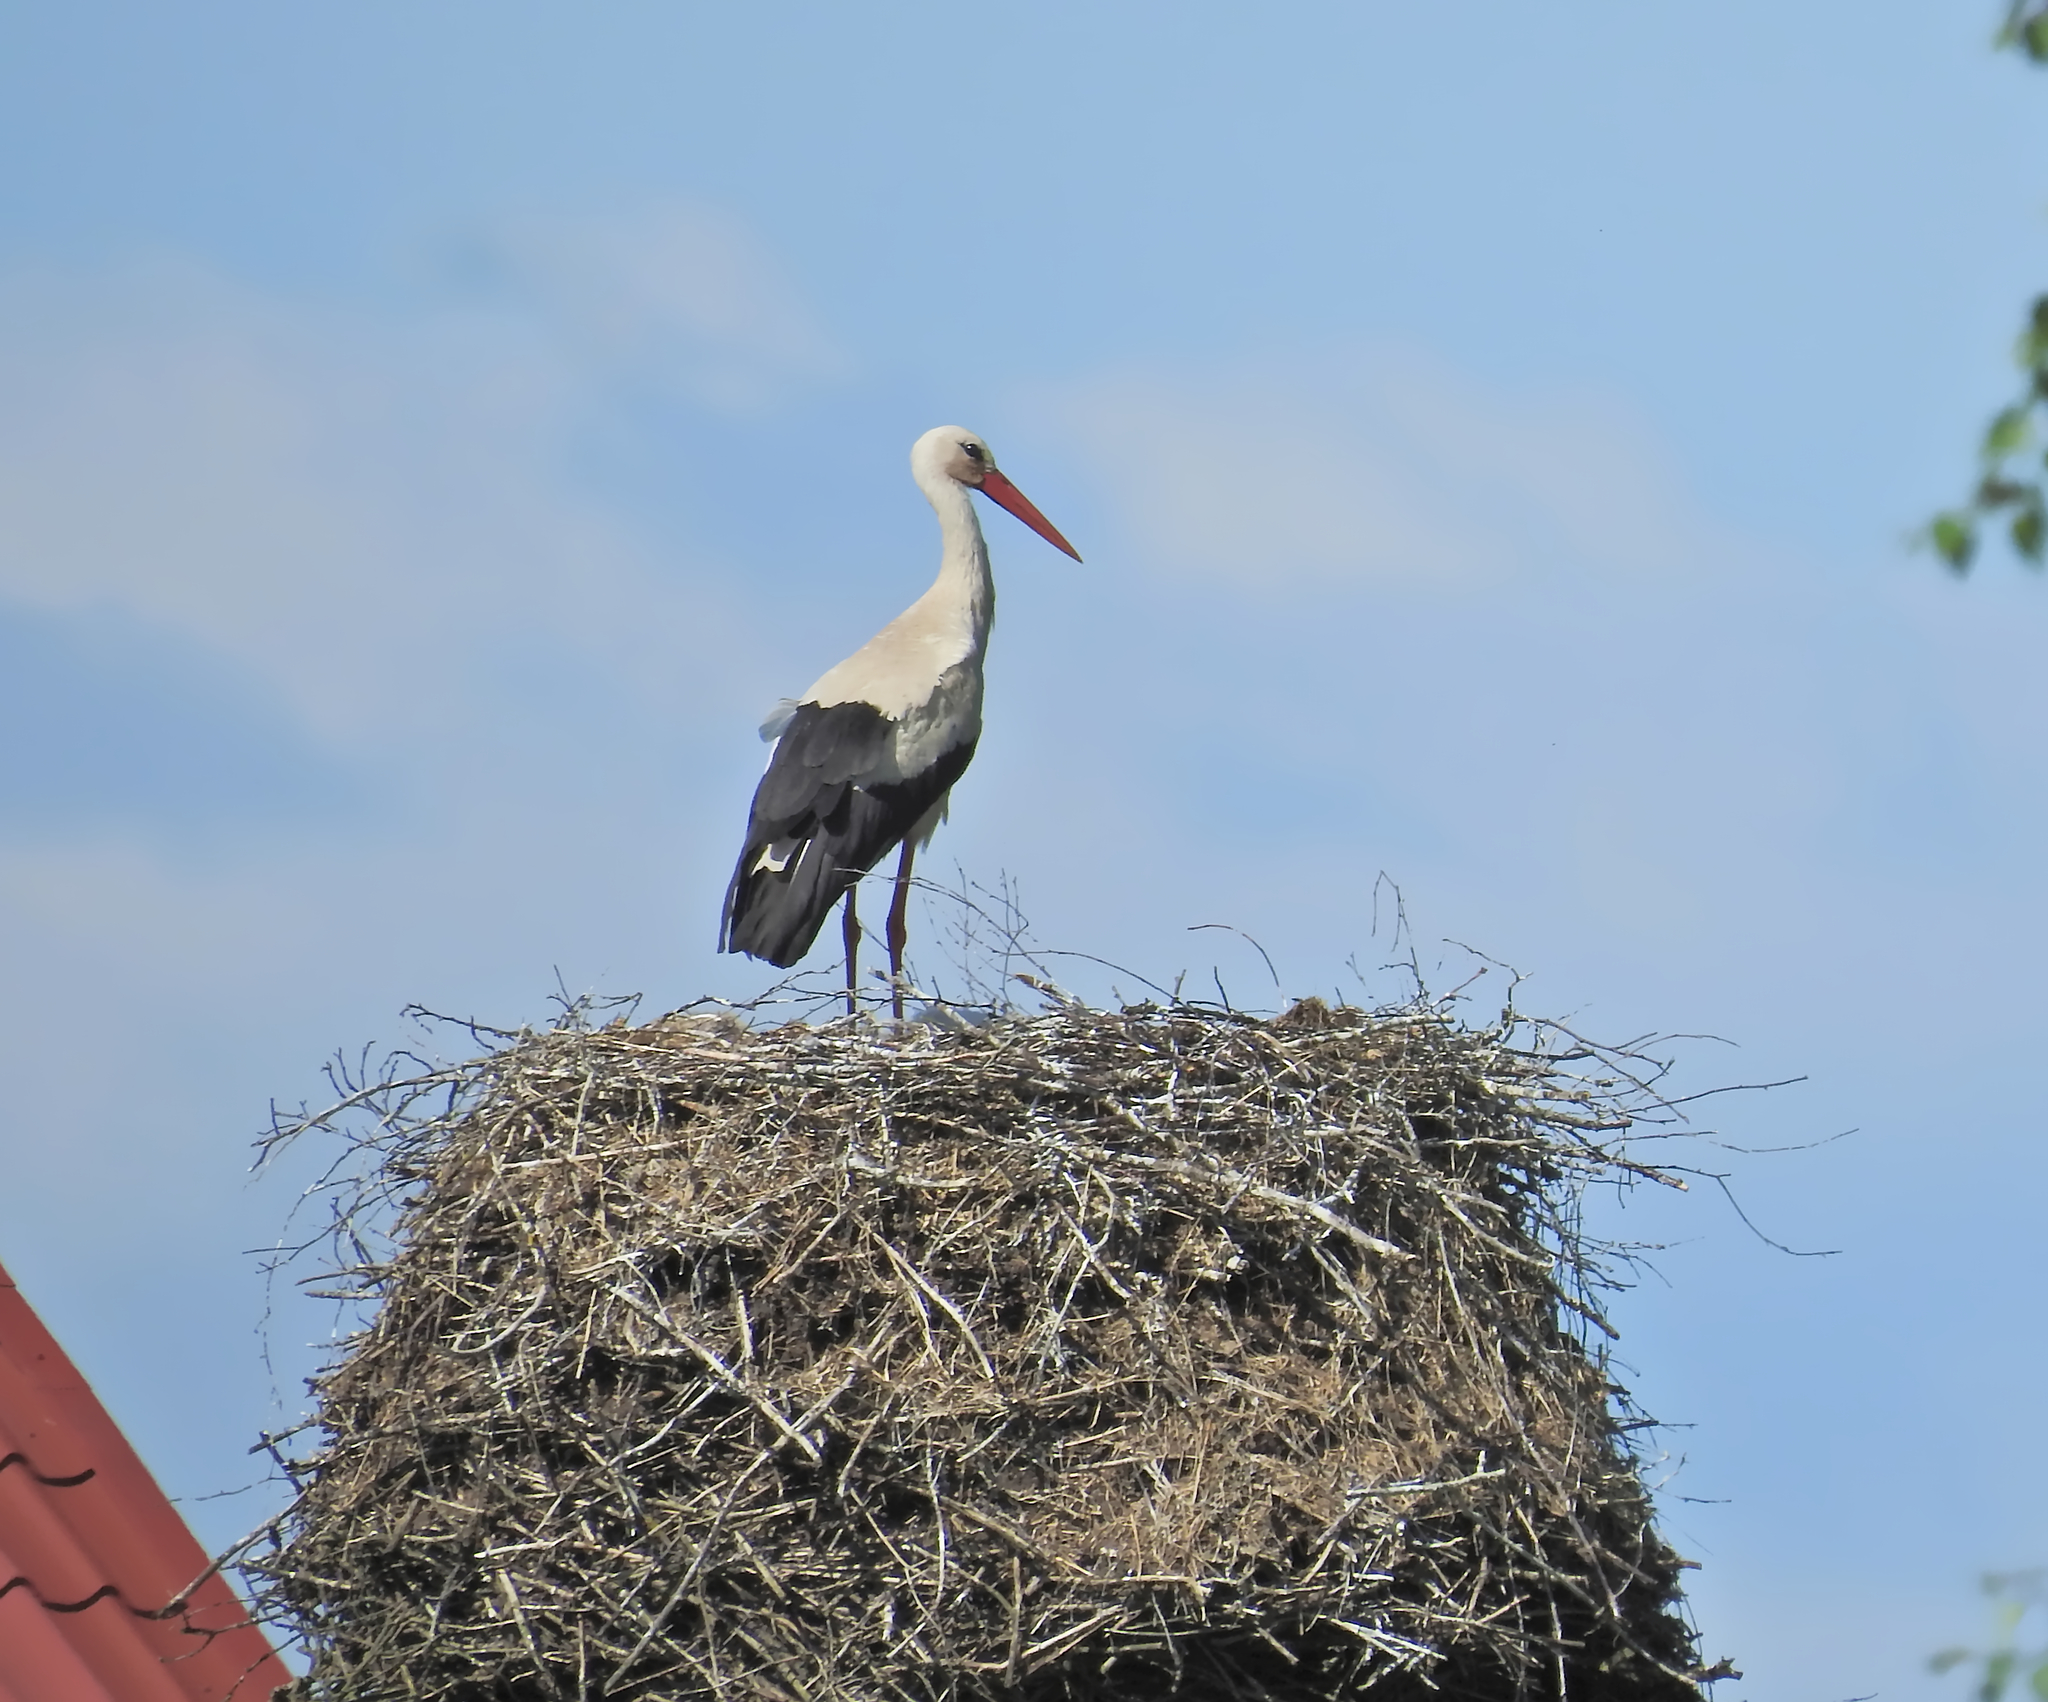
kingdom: Animalia
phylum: Chordata
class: Aves
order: Ciconiiformes
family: Ciconiidae
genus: Ciconia
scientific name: Ciconia ciconia
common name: White stork
